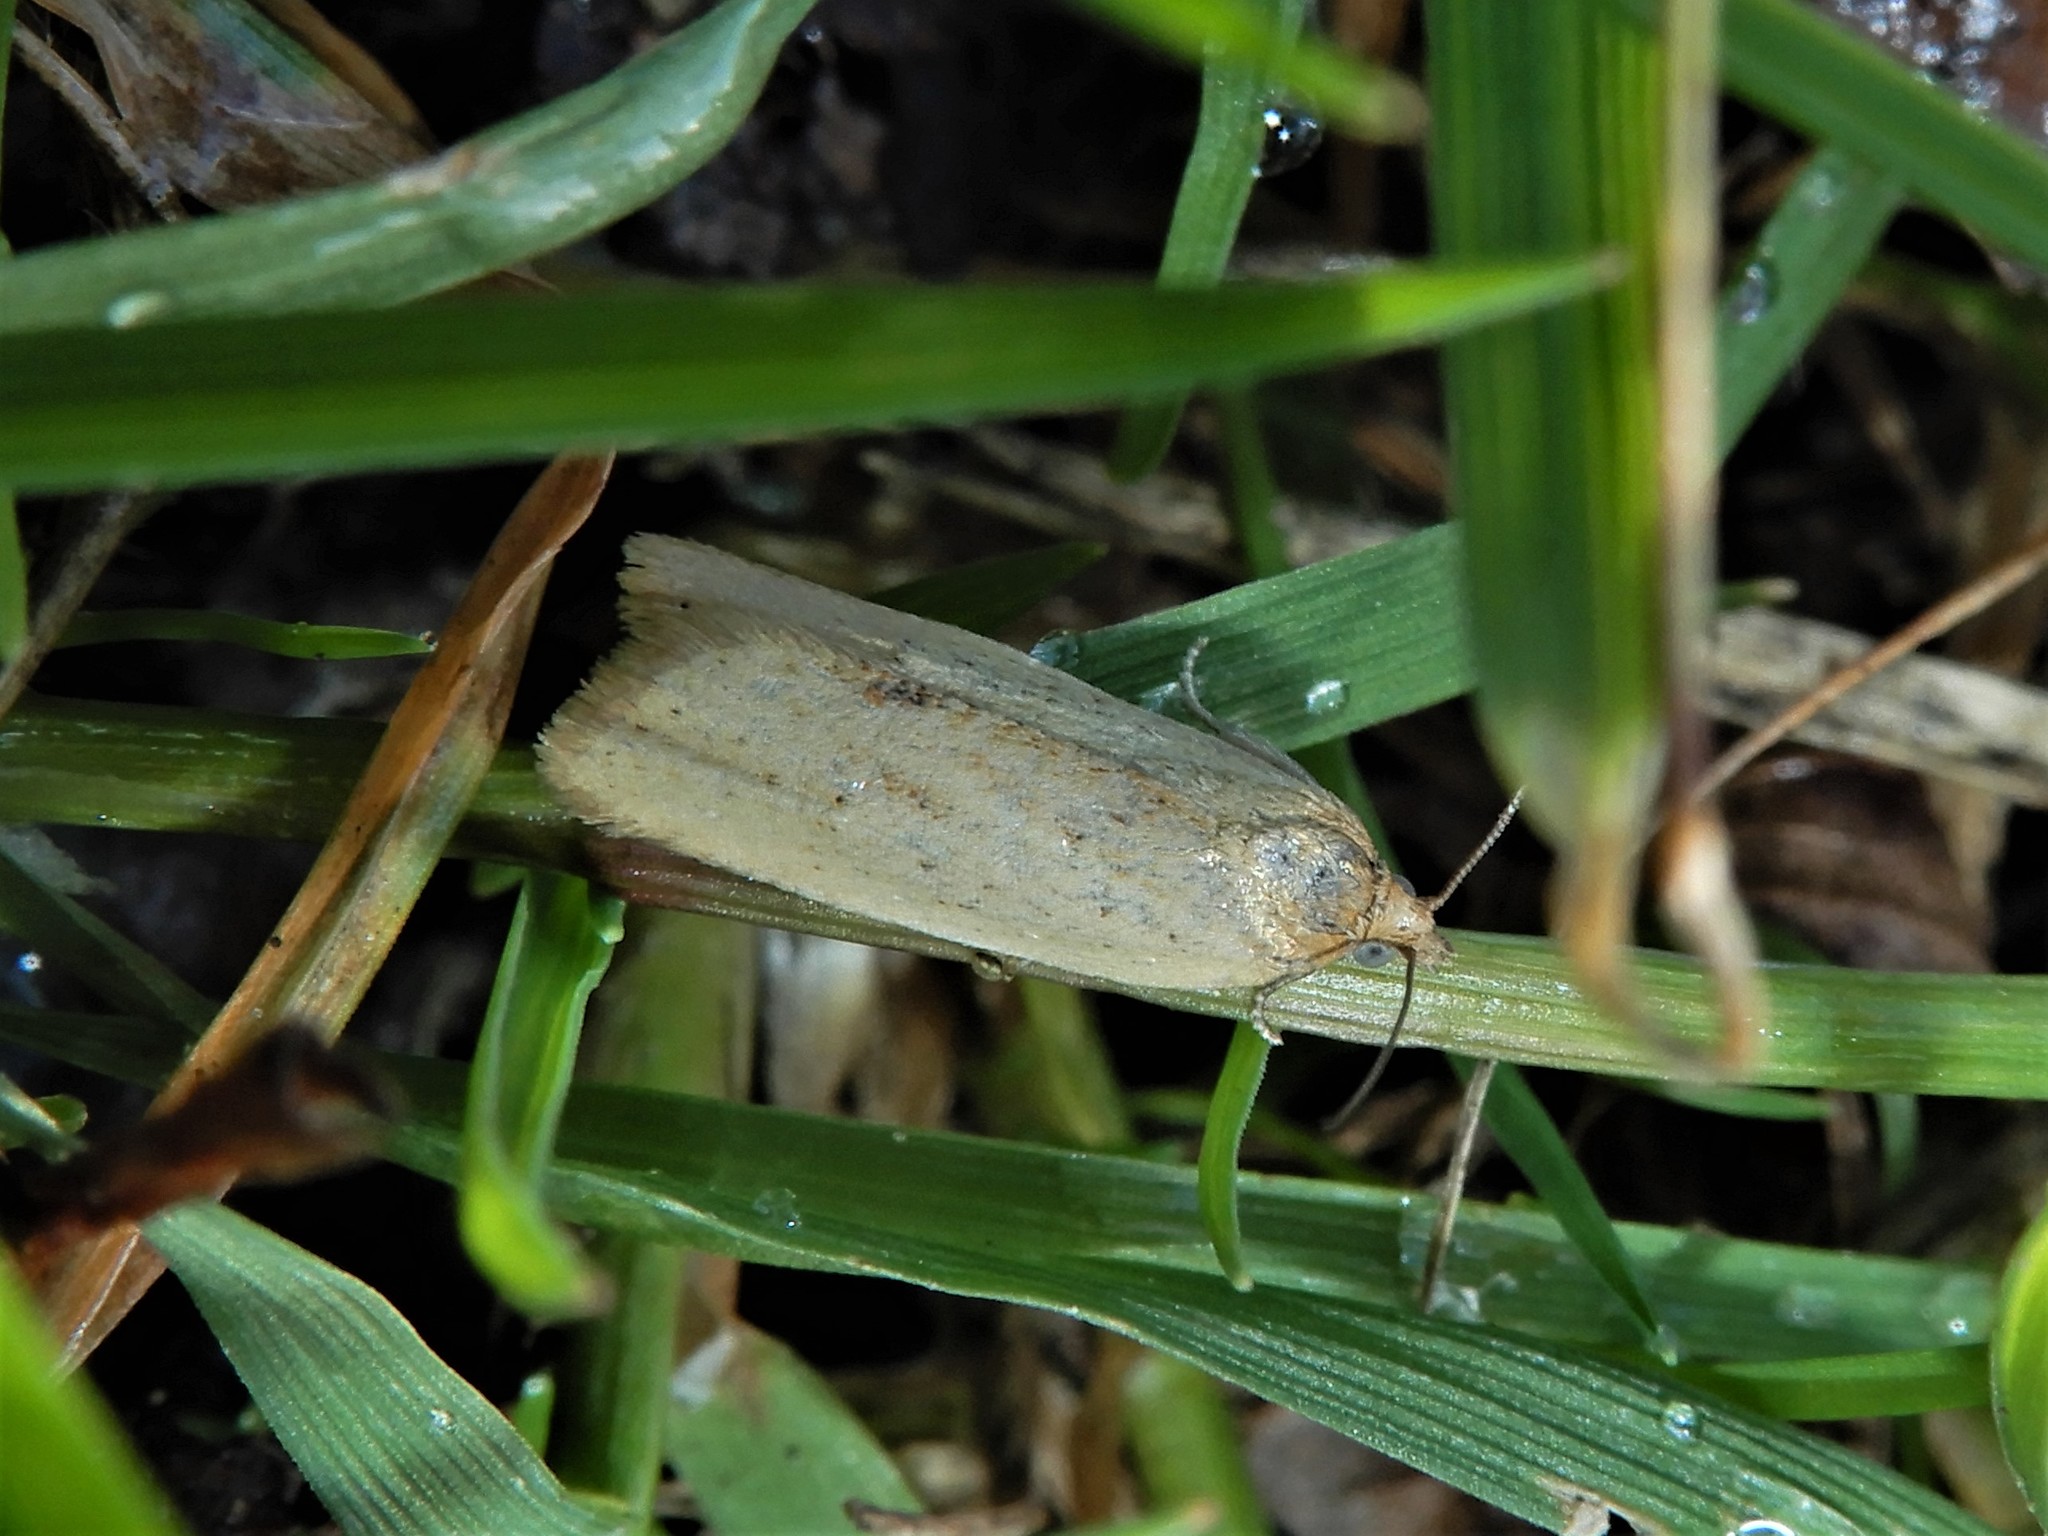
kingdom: Animalia
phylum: Arthropoda
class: Insecta
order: Lepidoptera
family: Tortricidae
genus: Clepsis
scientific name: Clepsis
